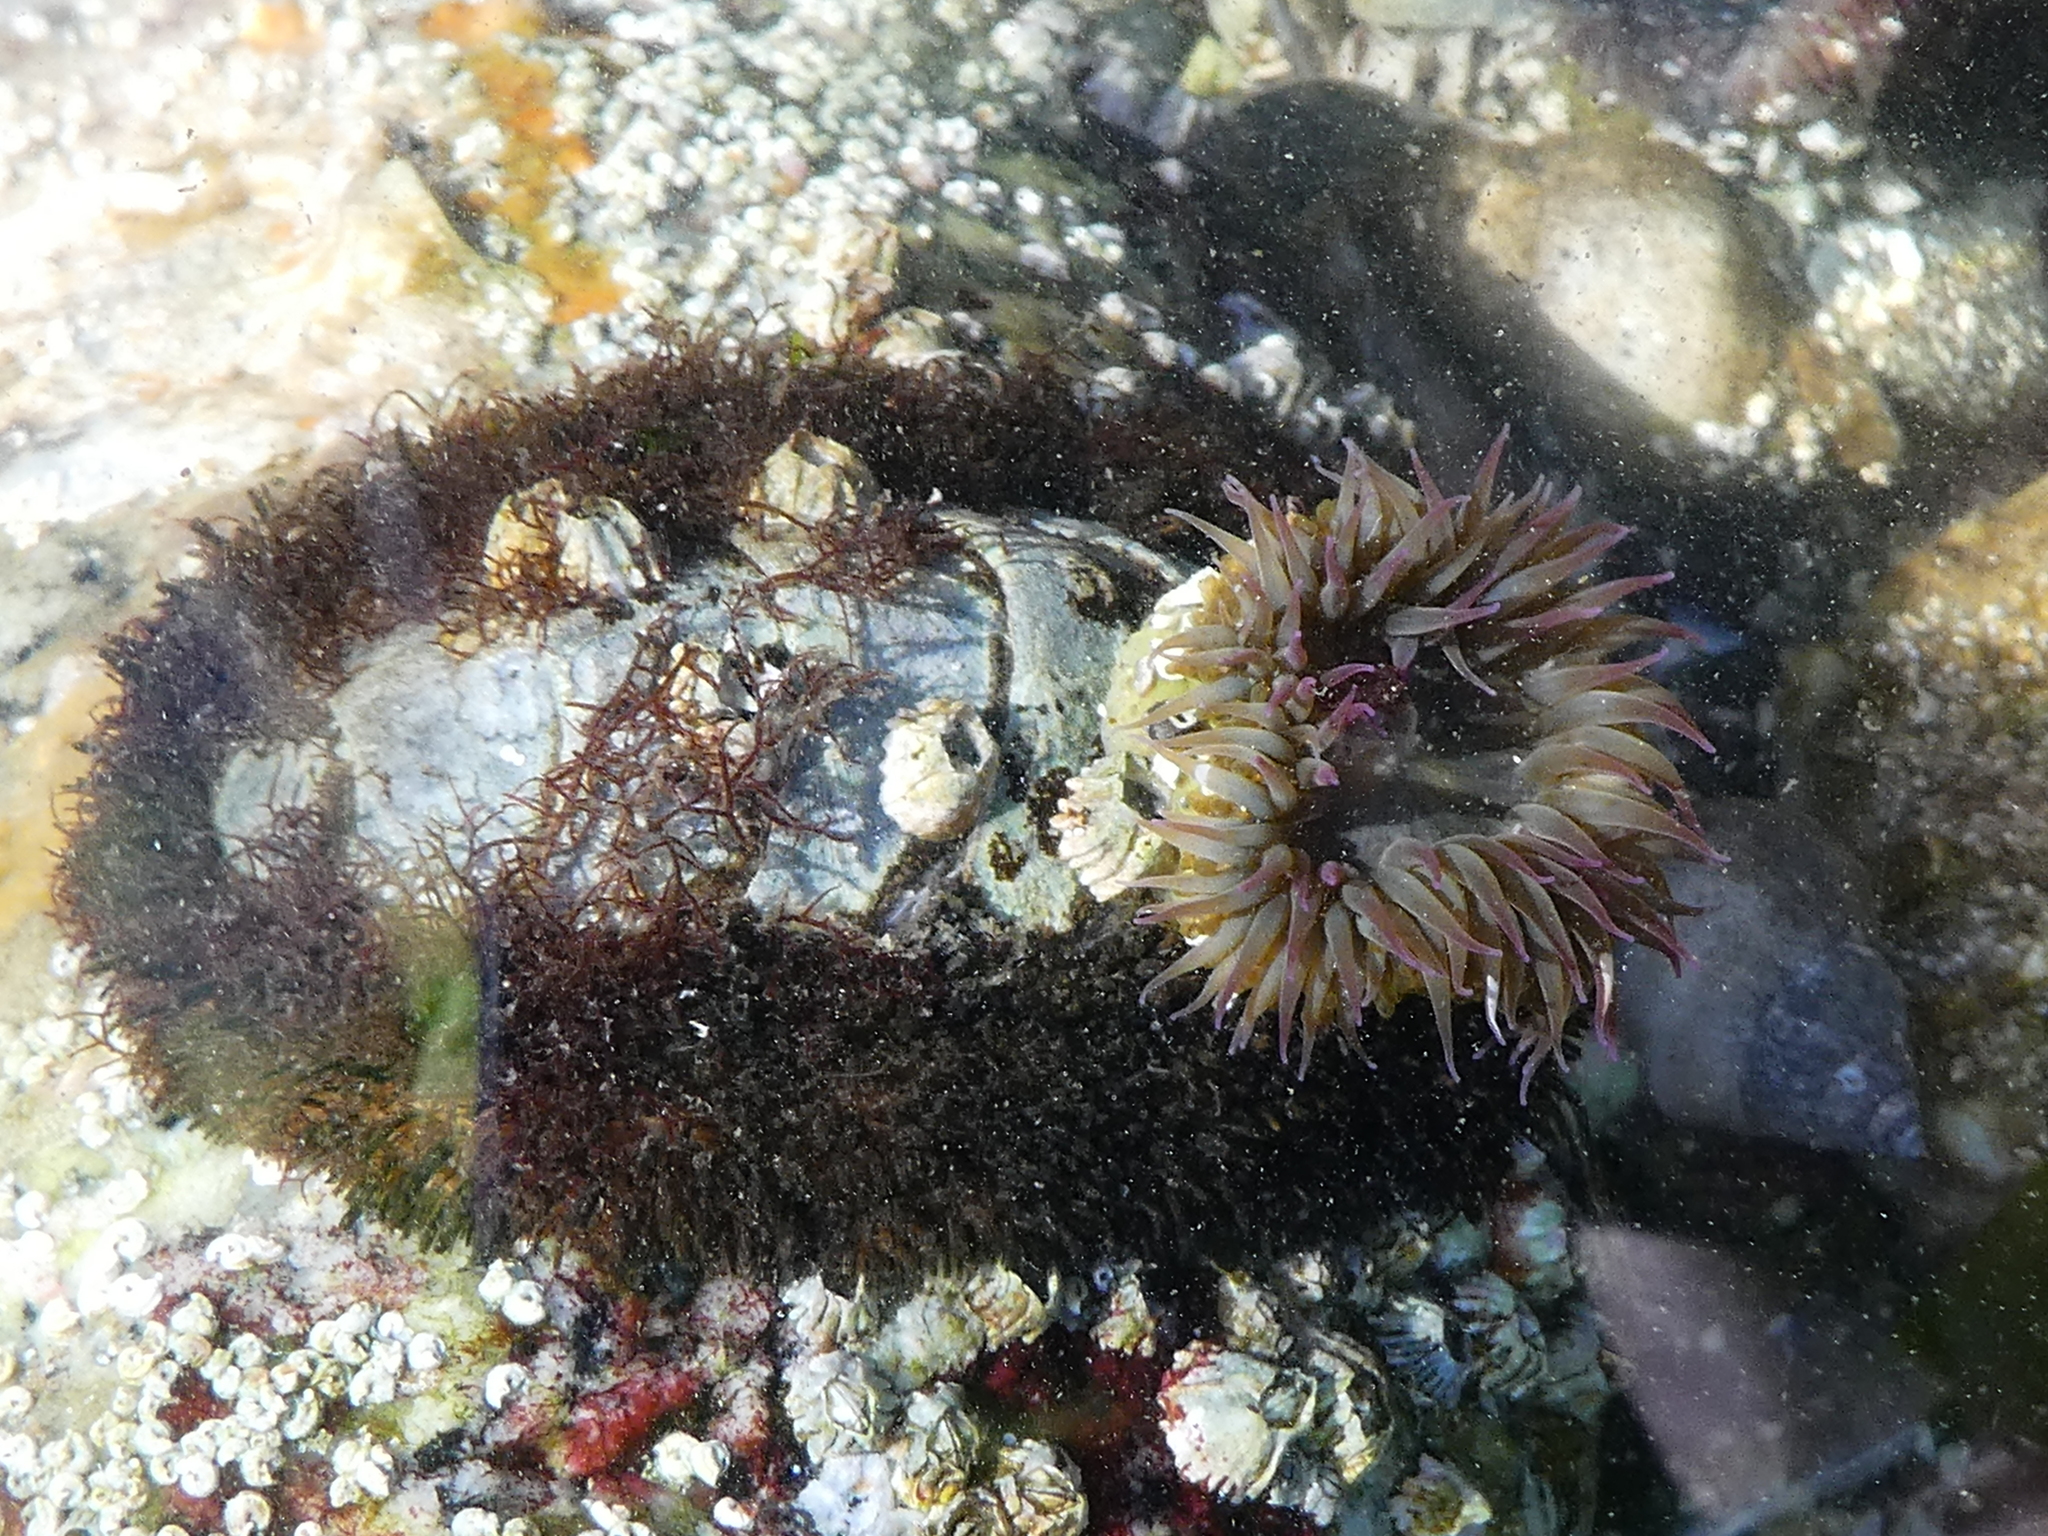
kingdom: Animalia
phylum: Cnidaria
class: Anthozoa
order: Actiniaria
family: Actiniidae
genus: Anthopleura
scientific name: Anthopleura elegantissima
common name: Clonal anemone
